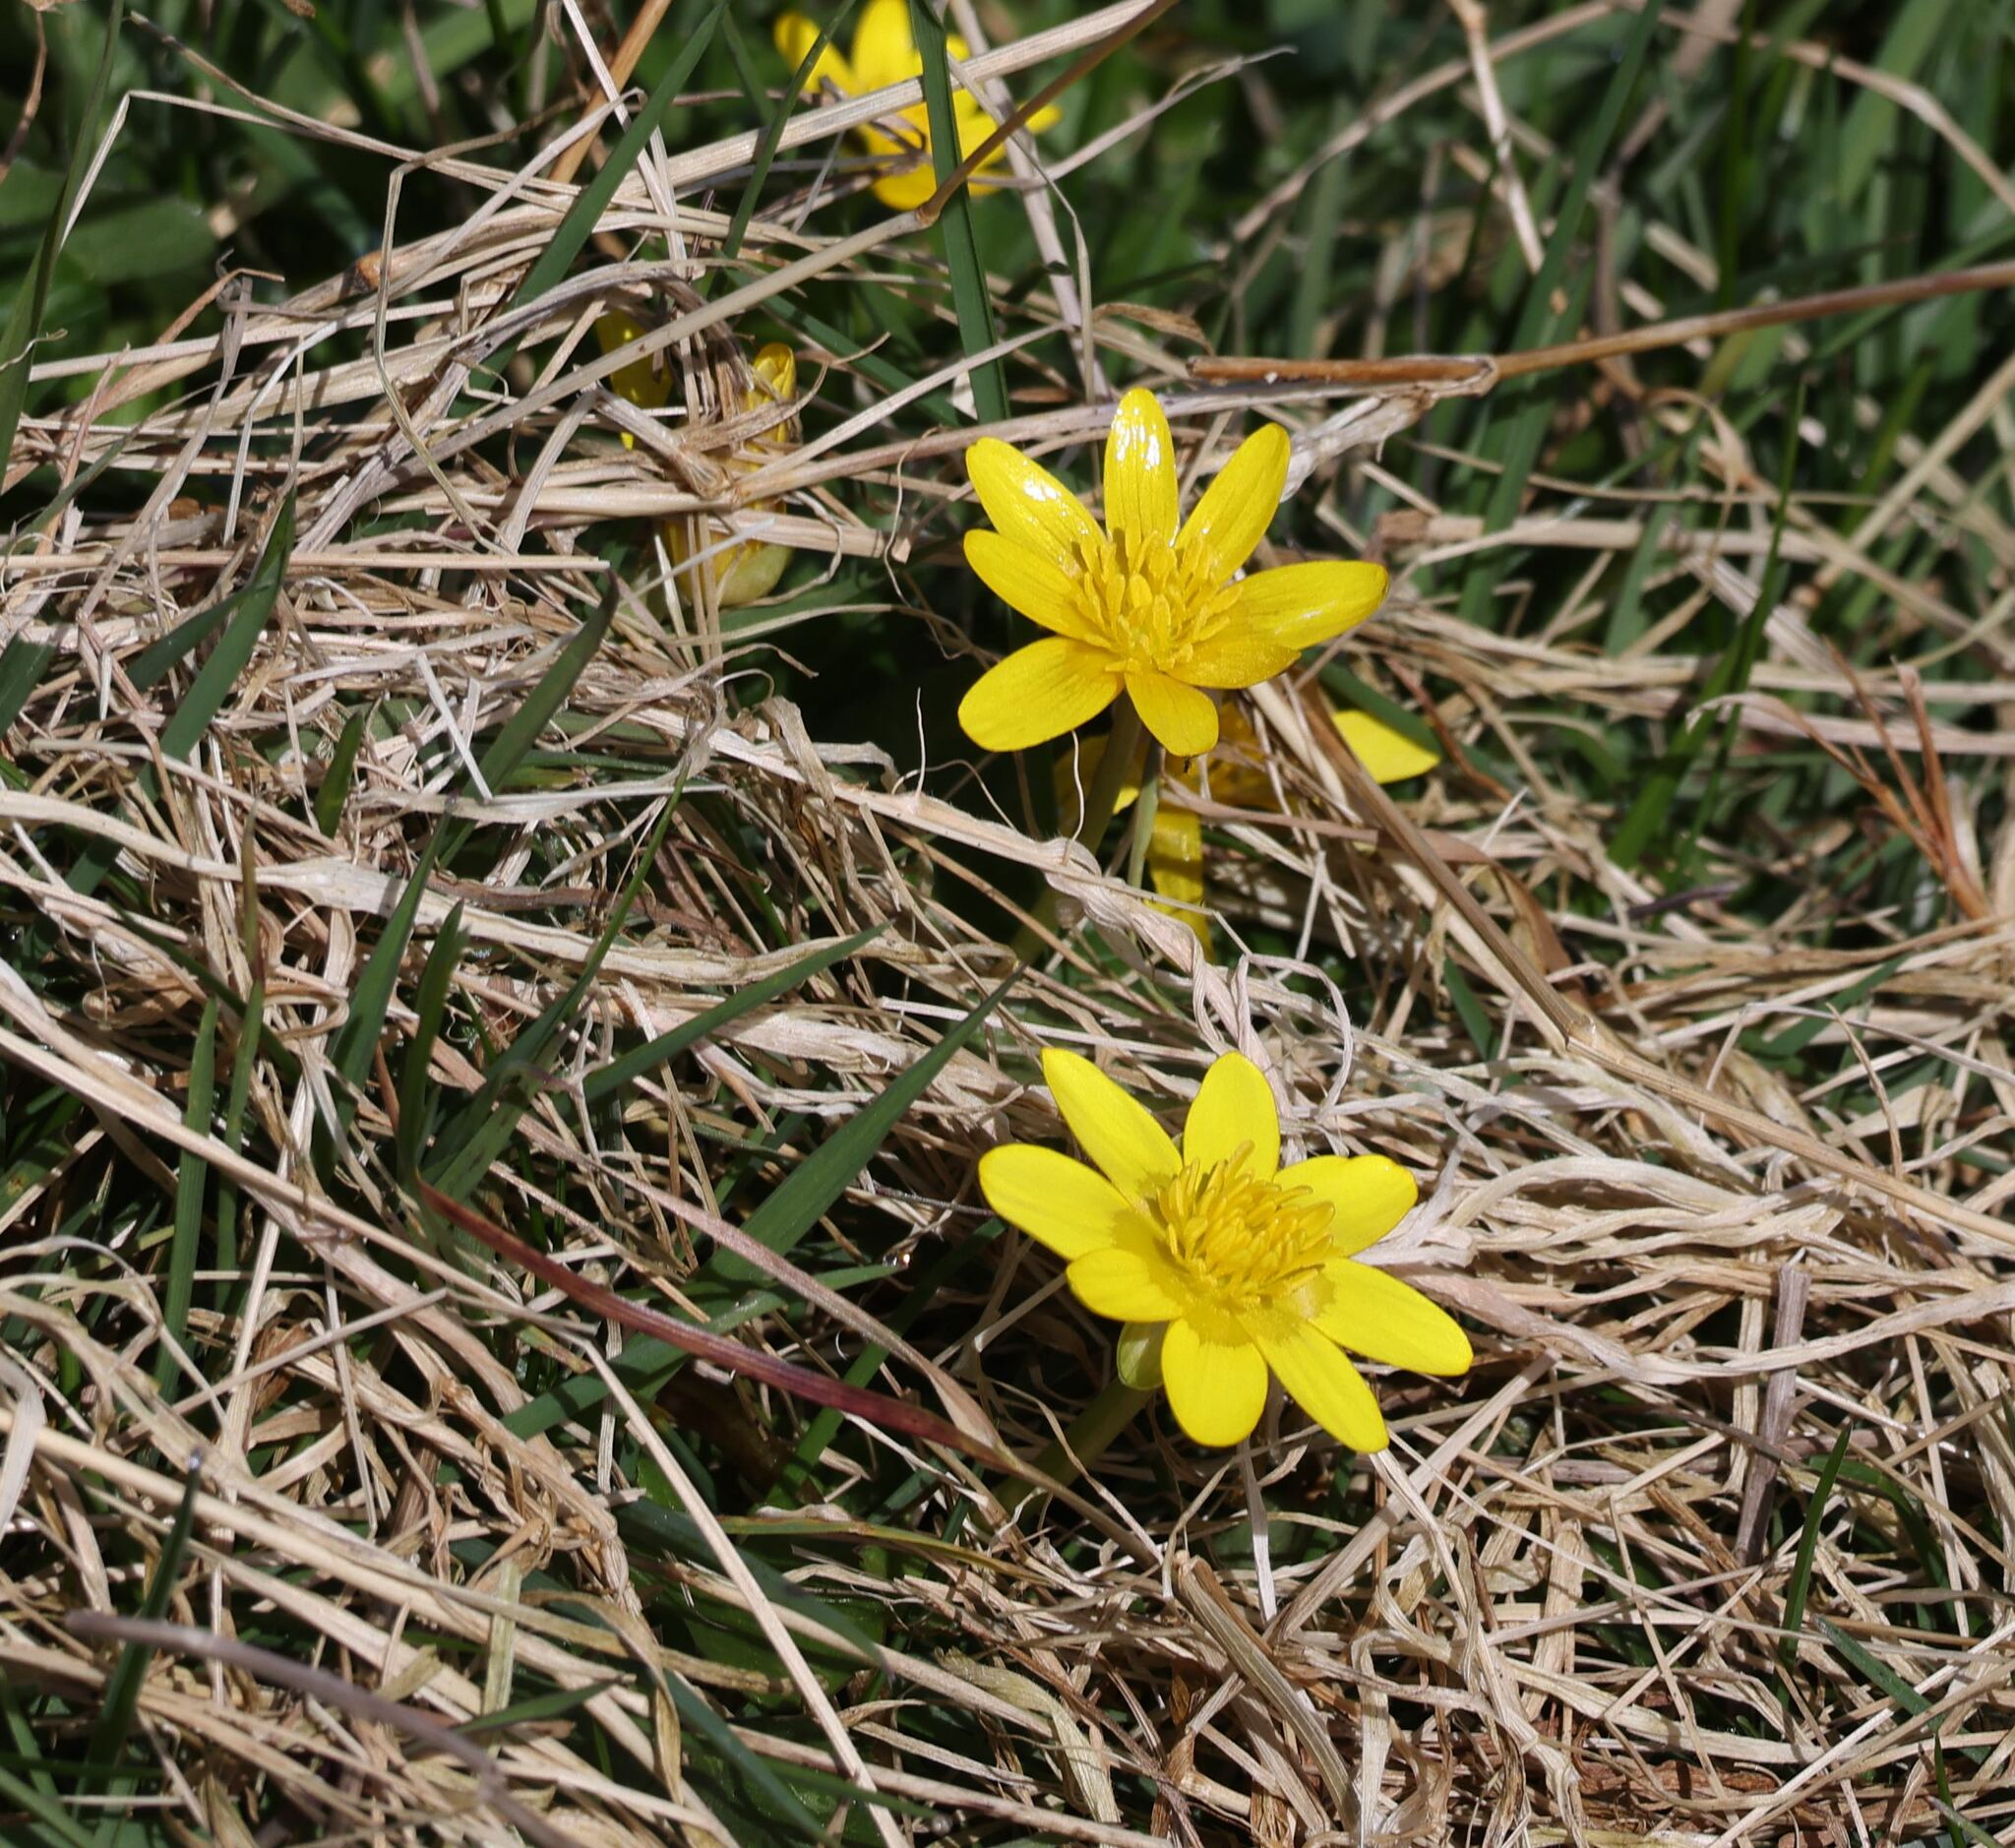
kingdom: Plantae
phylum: Tracheophyta
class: Magnoliopsida
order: Ranunculales
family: Ranunculaceae
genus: Ficaria
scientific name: Ficaria verna
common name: Lesser celandine
